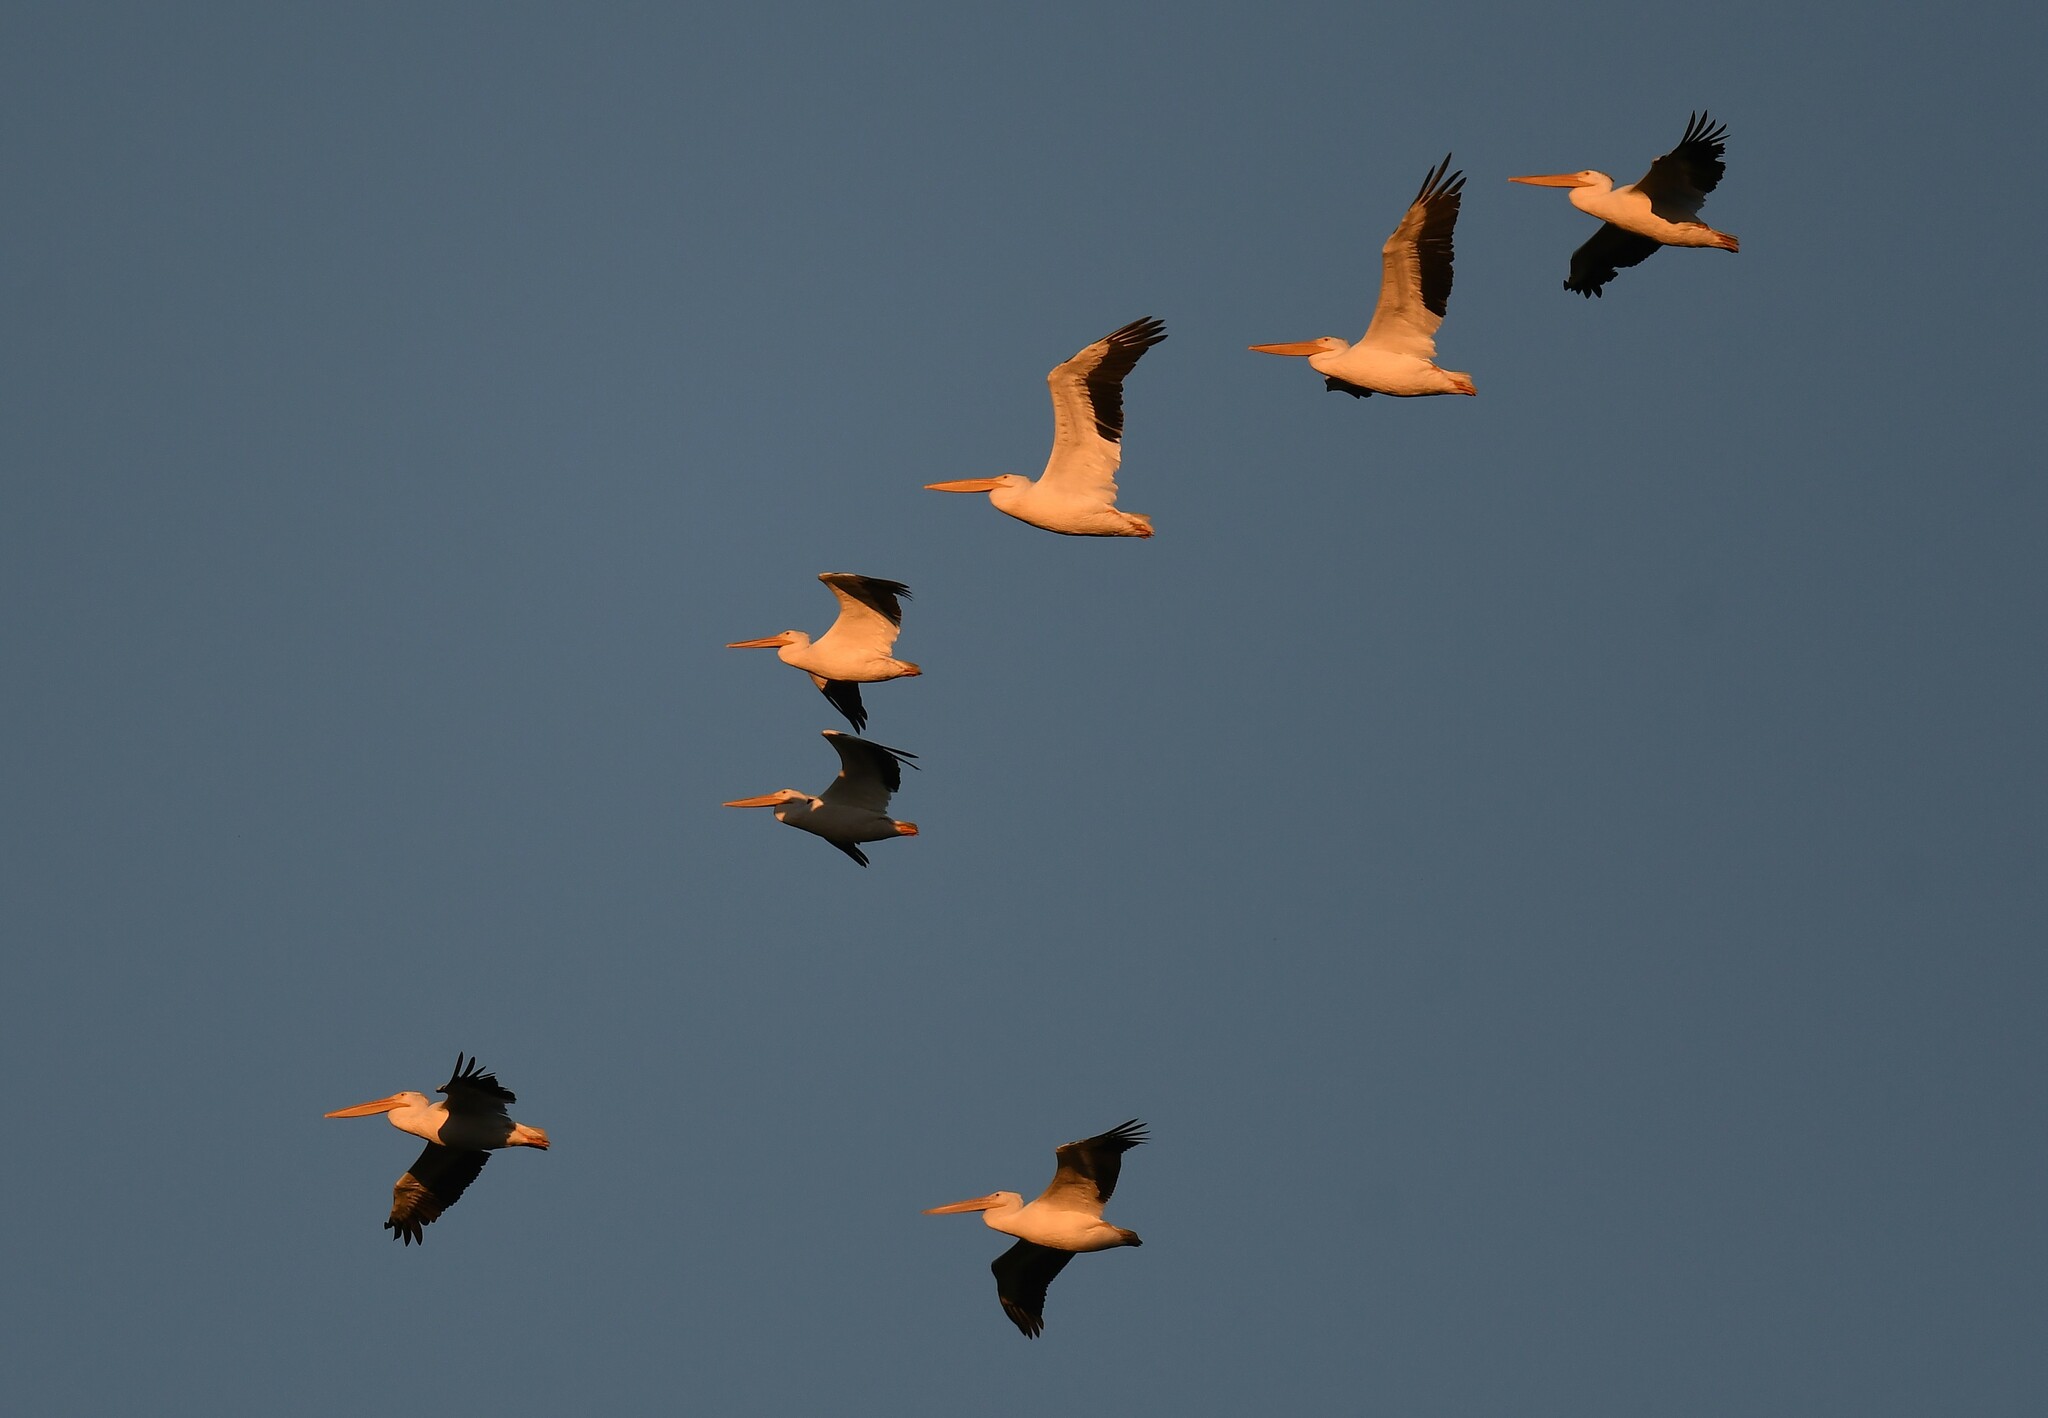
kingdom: Animalia
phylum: Chordata
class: Aves
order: Pelecaniformes
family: Pelecanidae
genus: Pelecanus
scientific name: Pelecanus erythrorhynchos
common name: American white pelican
